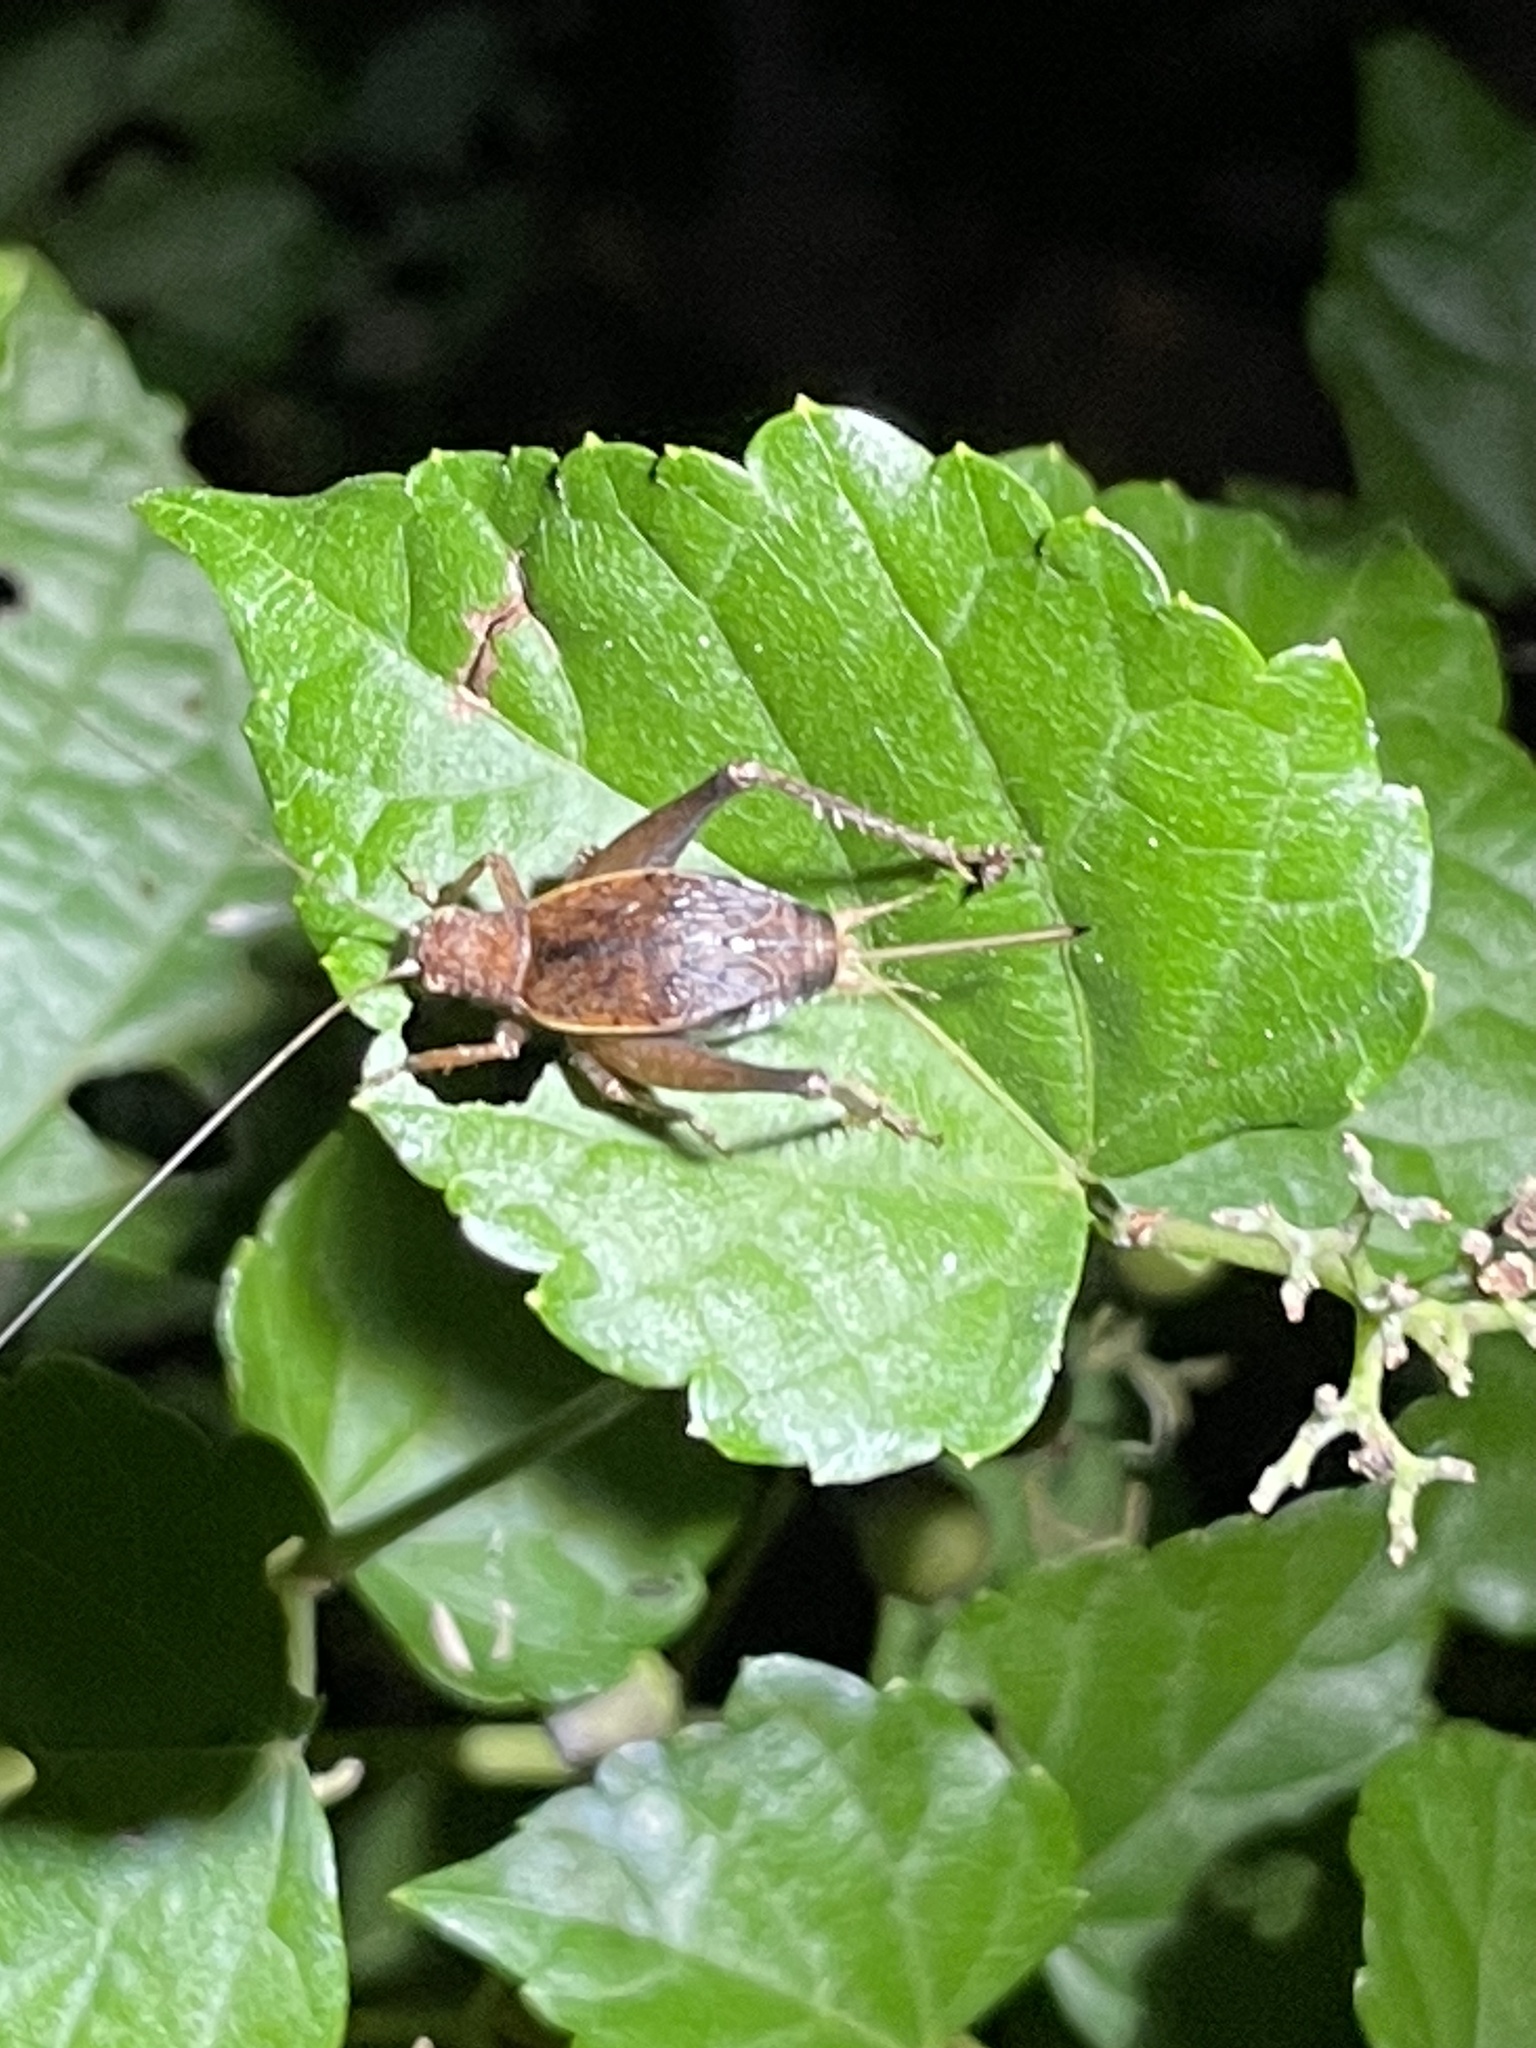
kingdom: Animalia
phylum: Arthropoda
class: Insecta
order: Orthoptera
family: Gryllidae
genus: Hapithus
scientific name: Hapithus agitator
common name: Restless bush cricket
